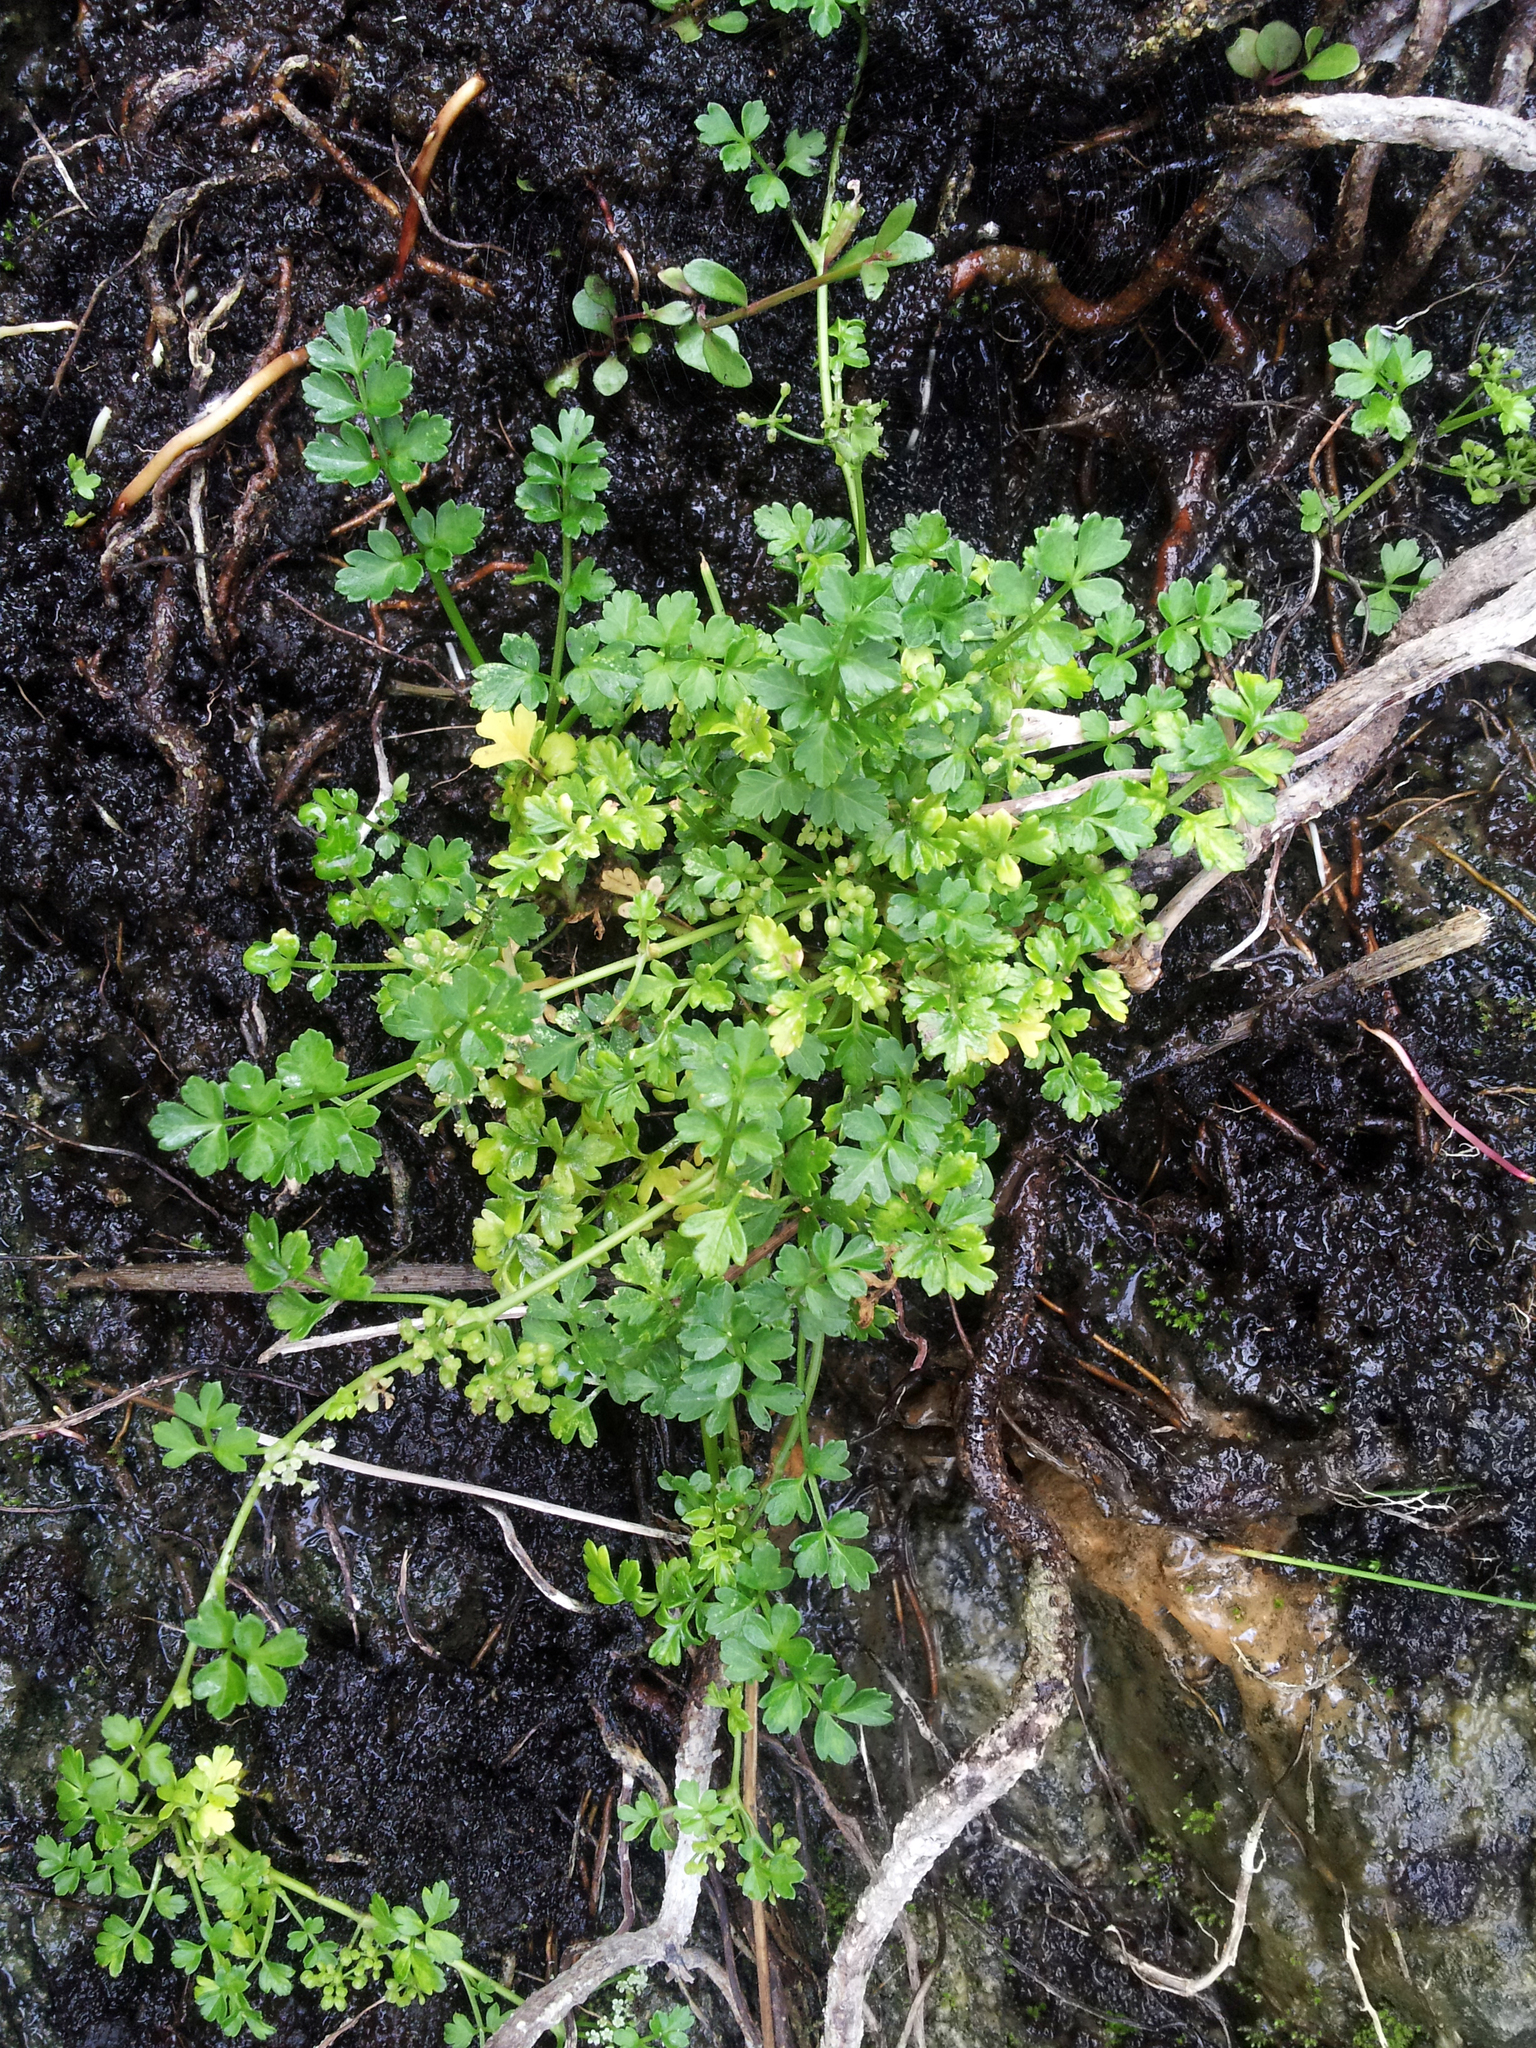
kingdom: Plantae
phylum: Tracheophyta
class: Magnoliopsida
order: Apiales
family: Apiaceae
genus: Apium
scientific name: Apium prostratum
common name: Prostrate marshwort
